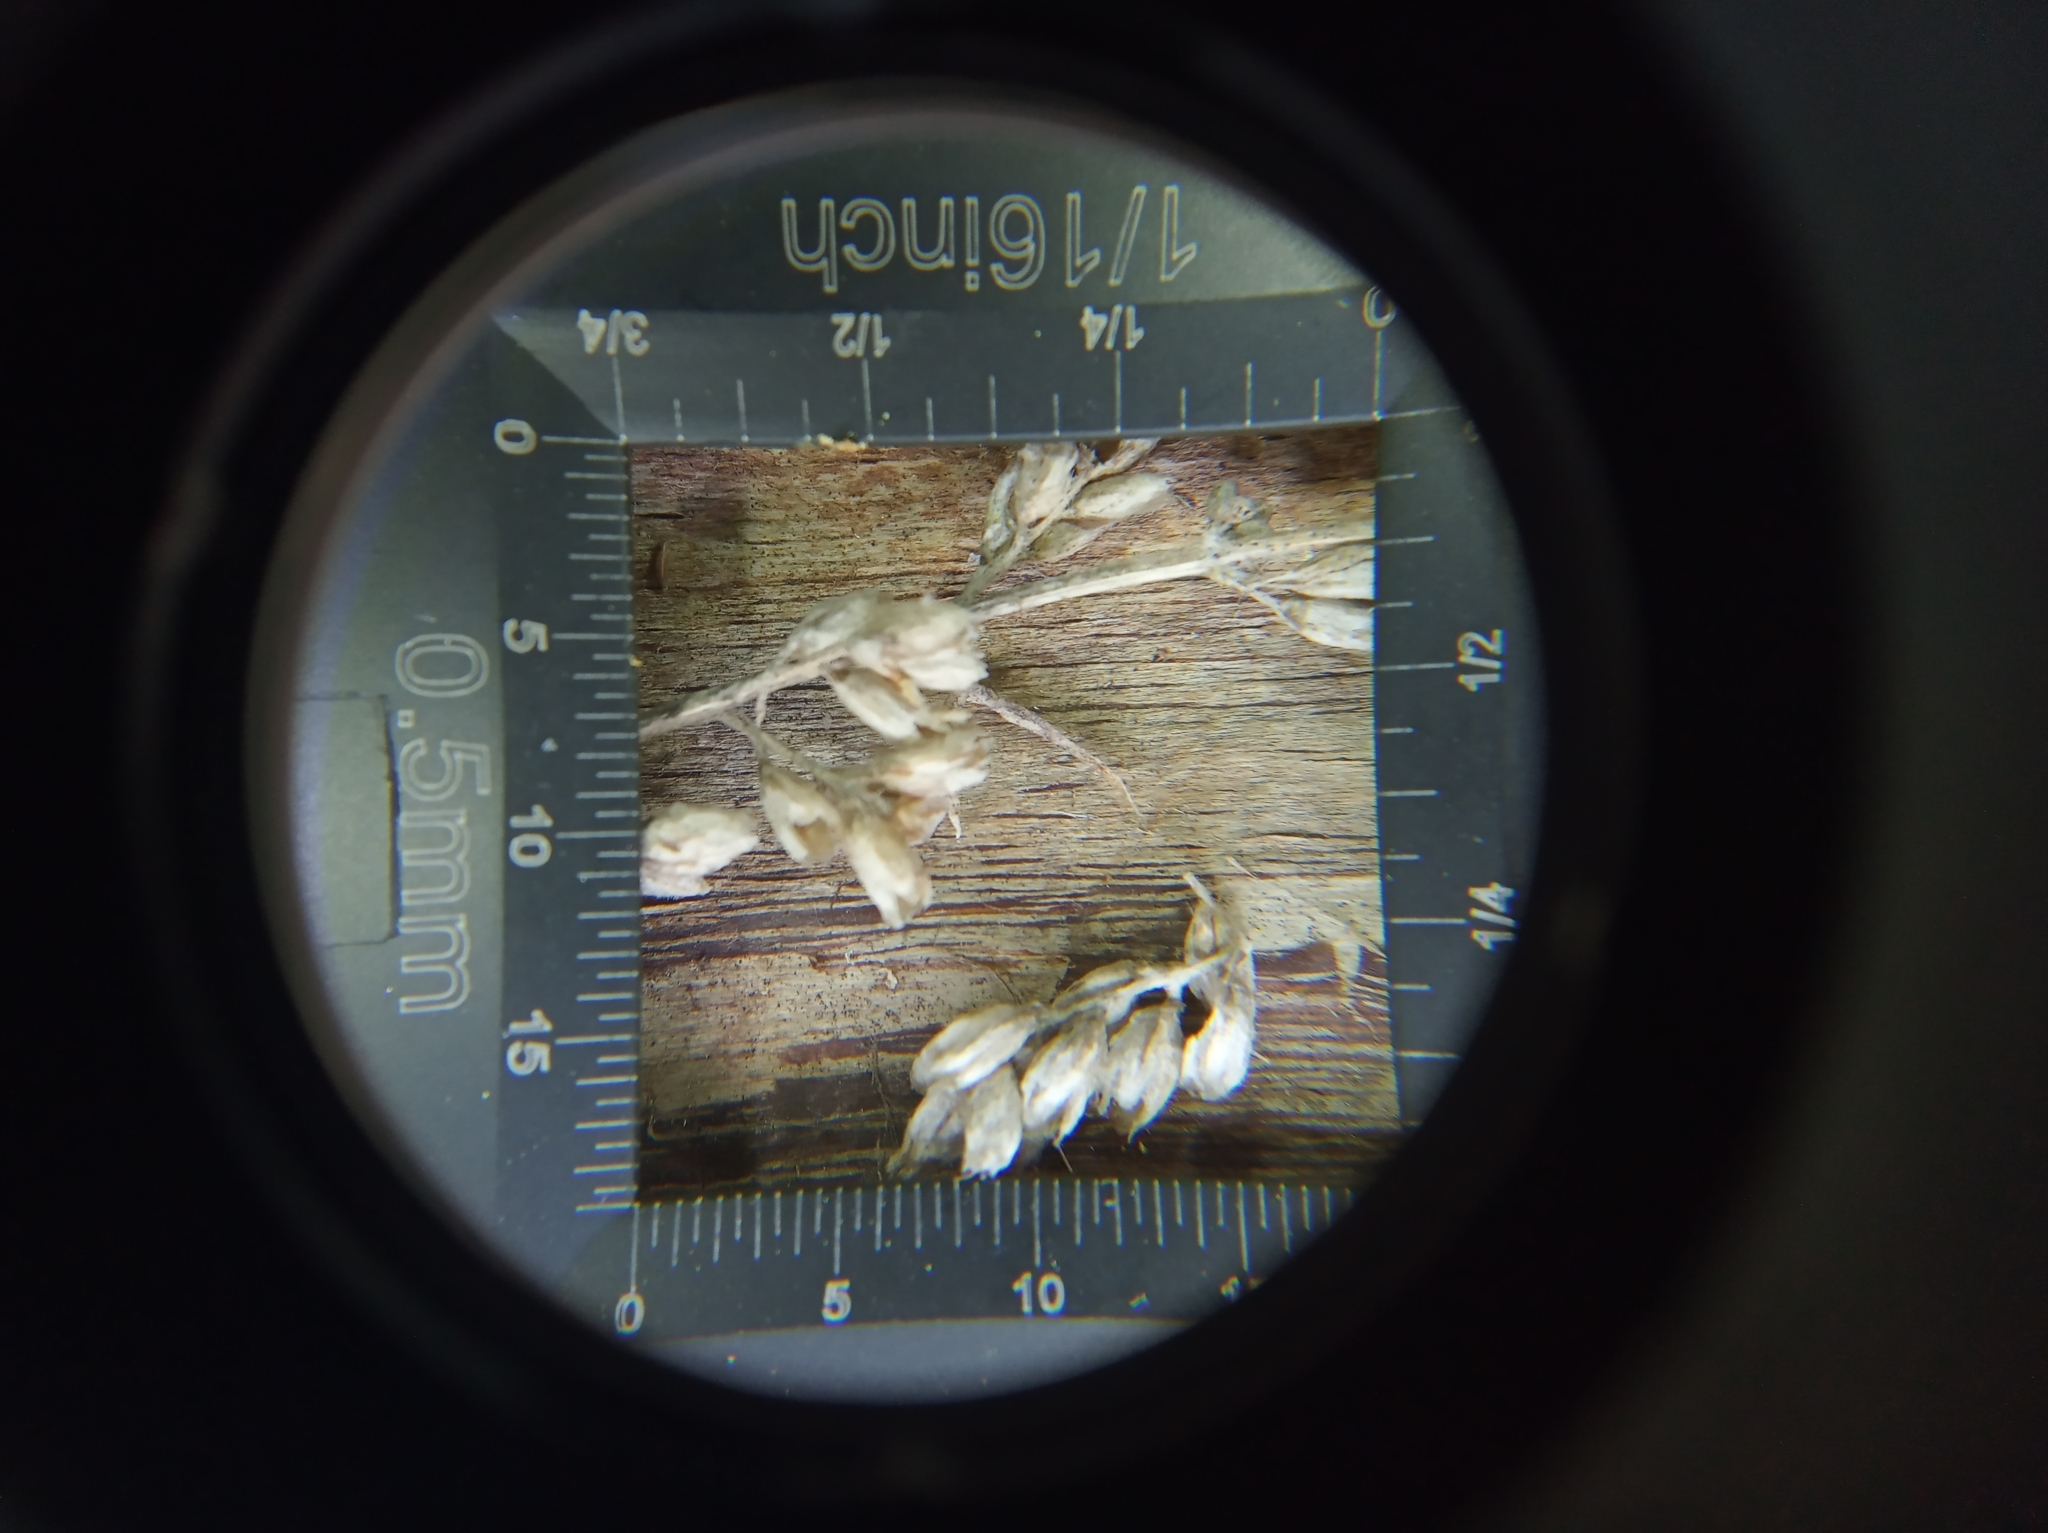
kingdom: Plantae
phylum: Tracheophyta
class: Magnoliopsida
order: Asterales
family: Asteraceae
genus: Artemisia
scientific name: Artemisia vulgaris
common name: Mugwort
